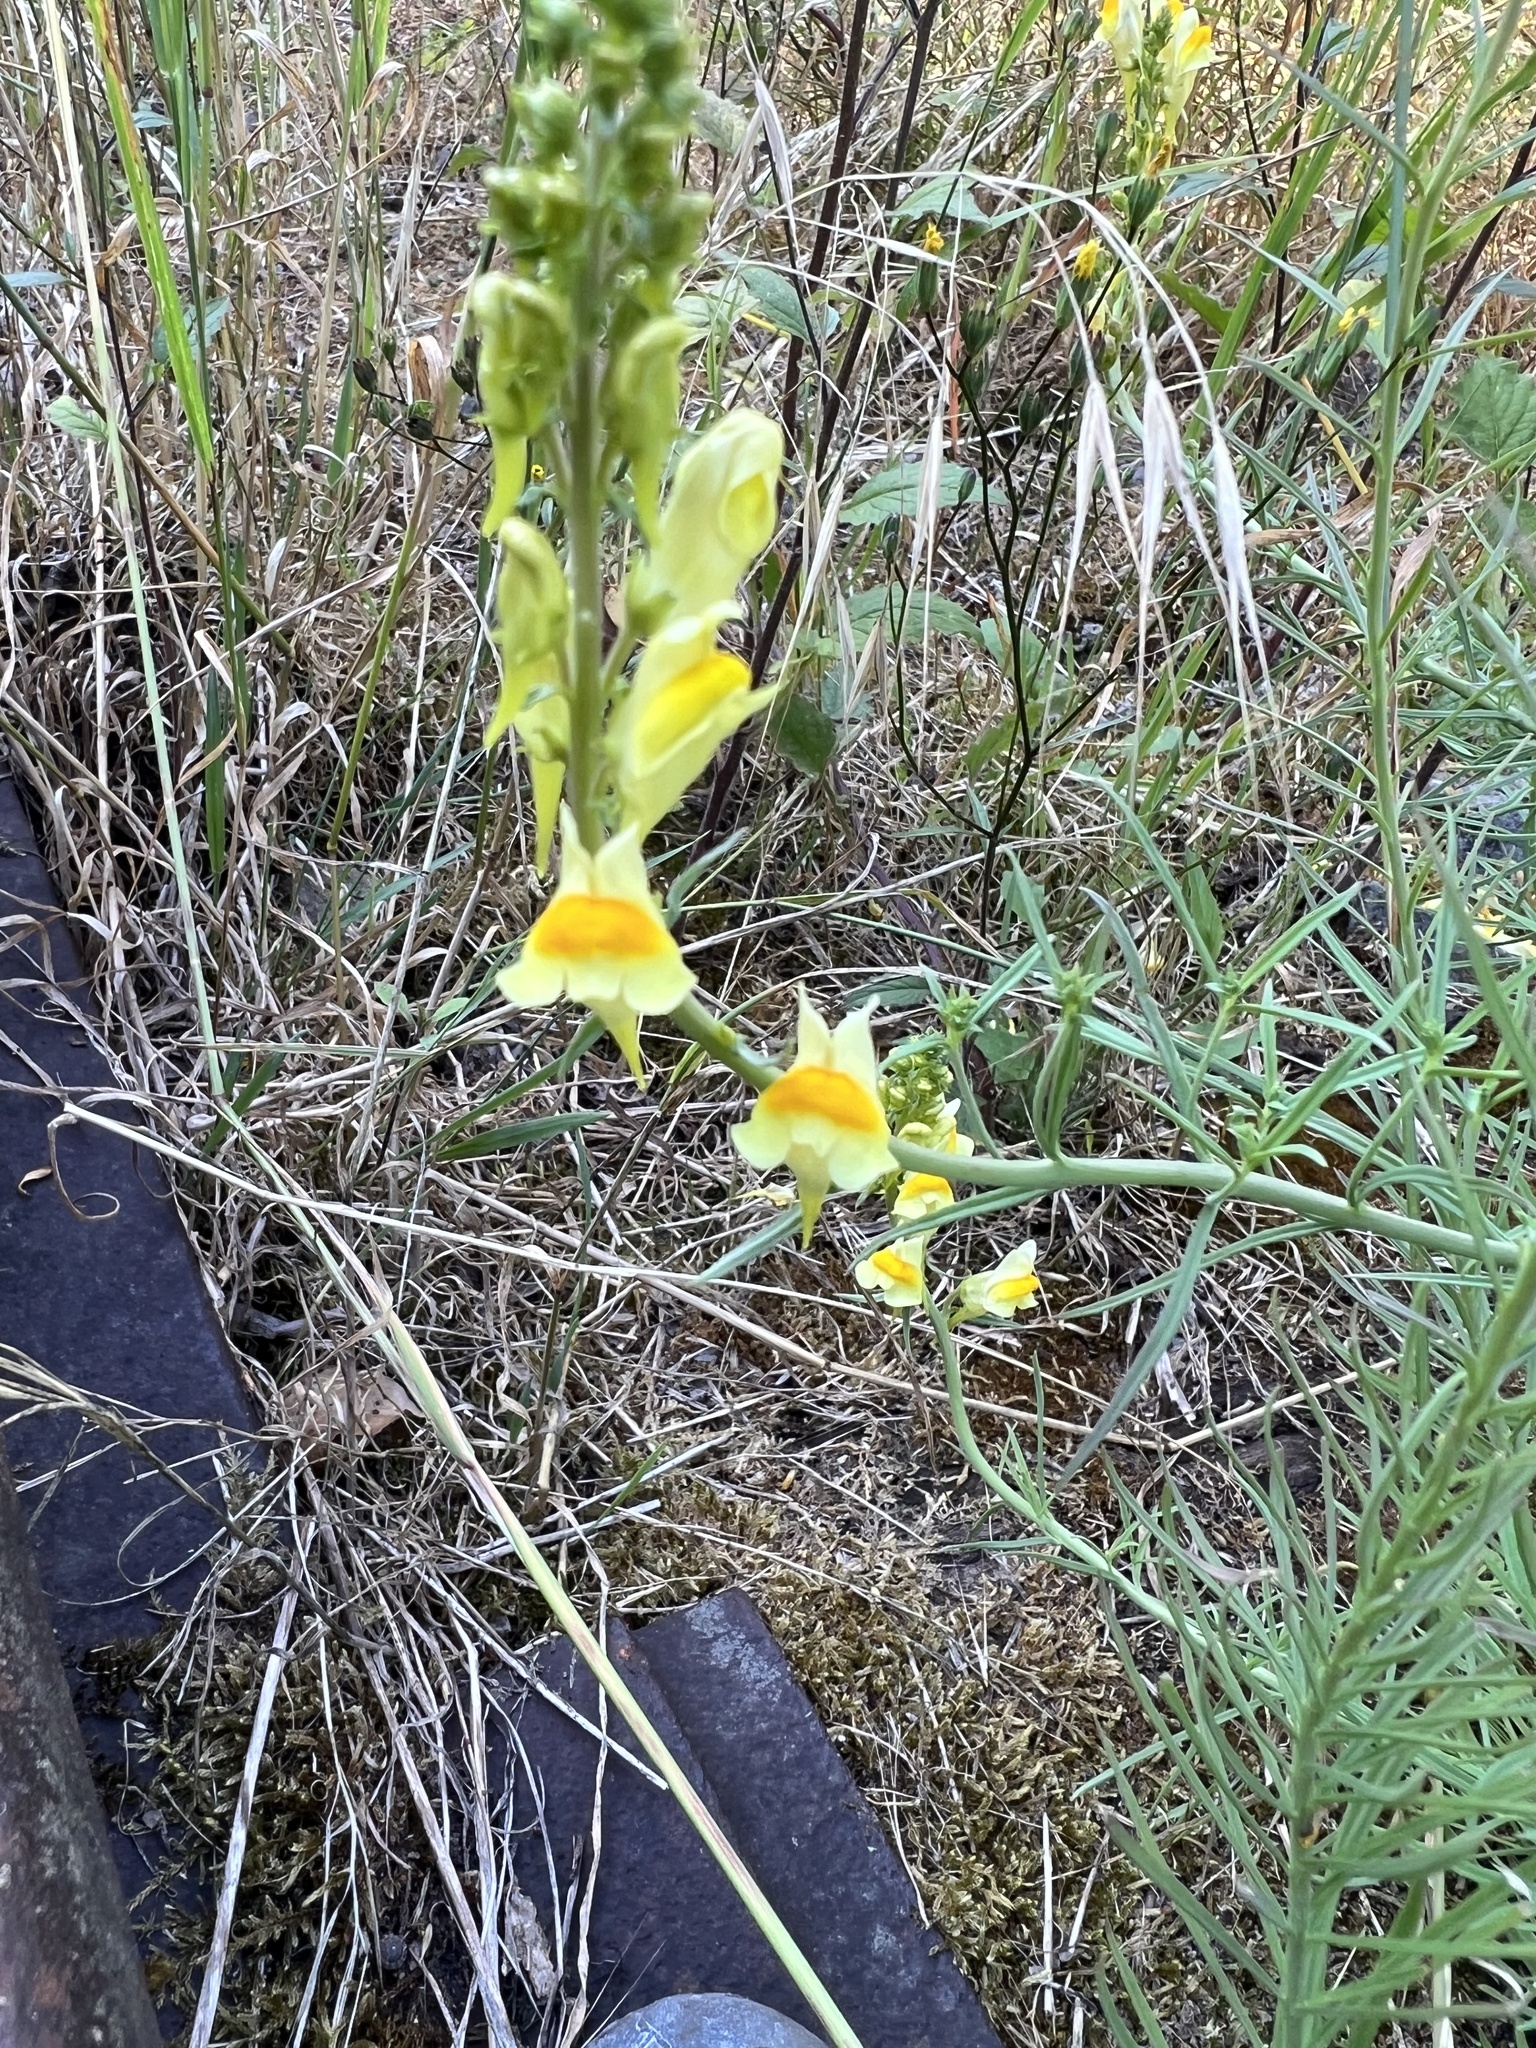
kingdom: Plantae
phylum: Tracheophyta
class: Magnoliopsida
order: Lamiales
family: Plantaginaceae
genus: Linaria
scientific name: Linaria vulgaris
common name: Butter and eggs
